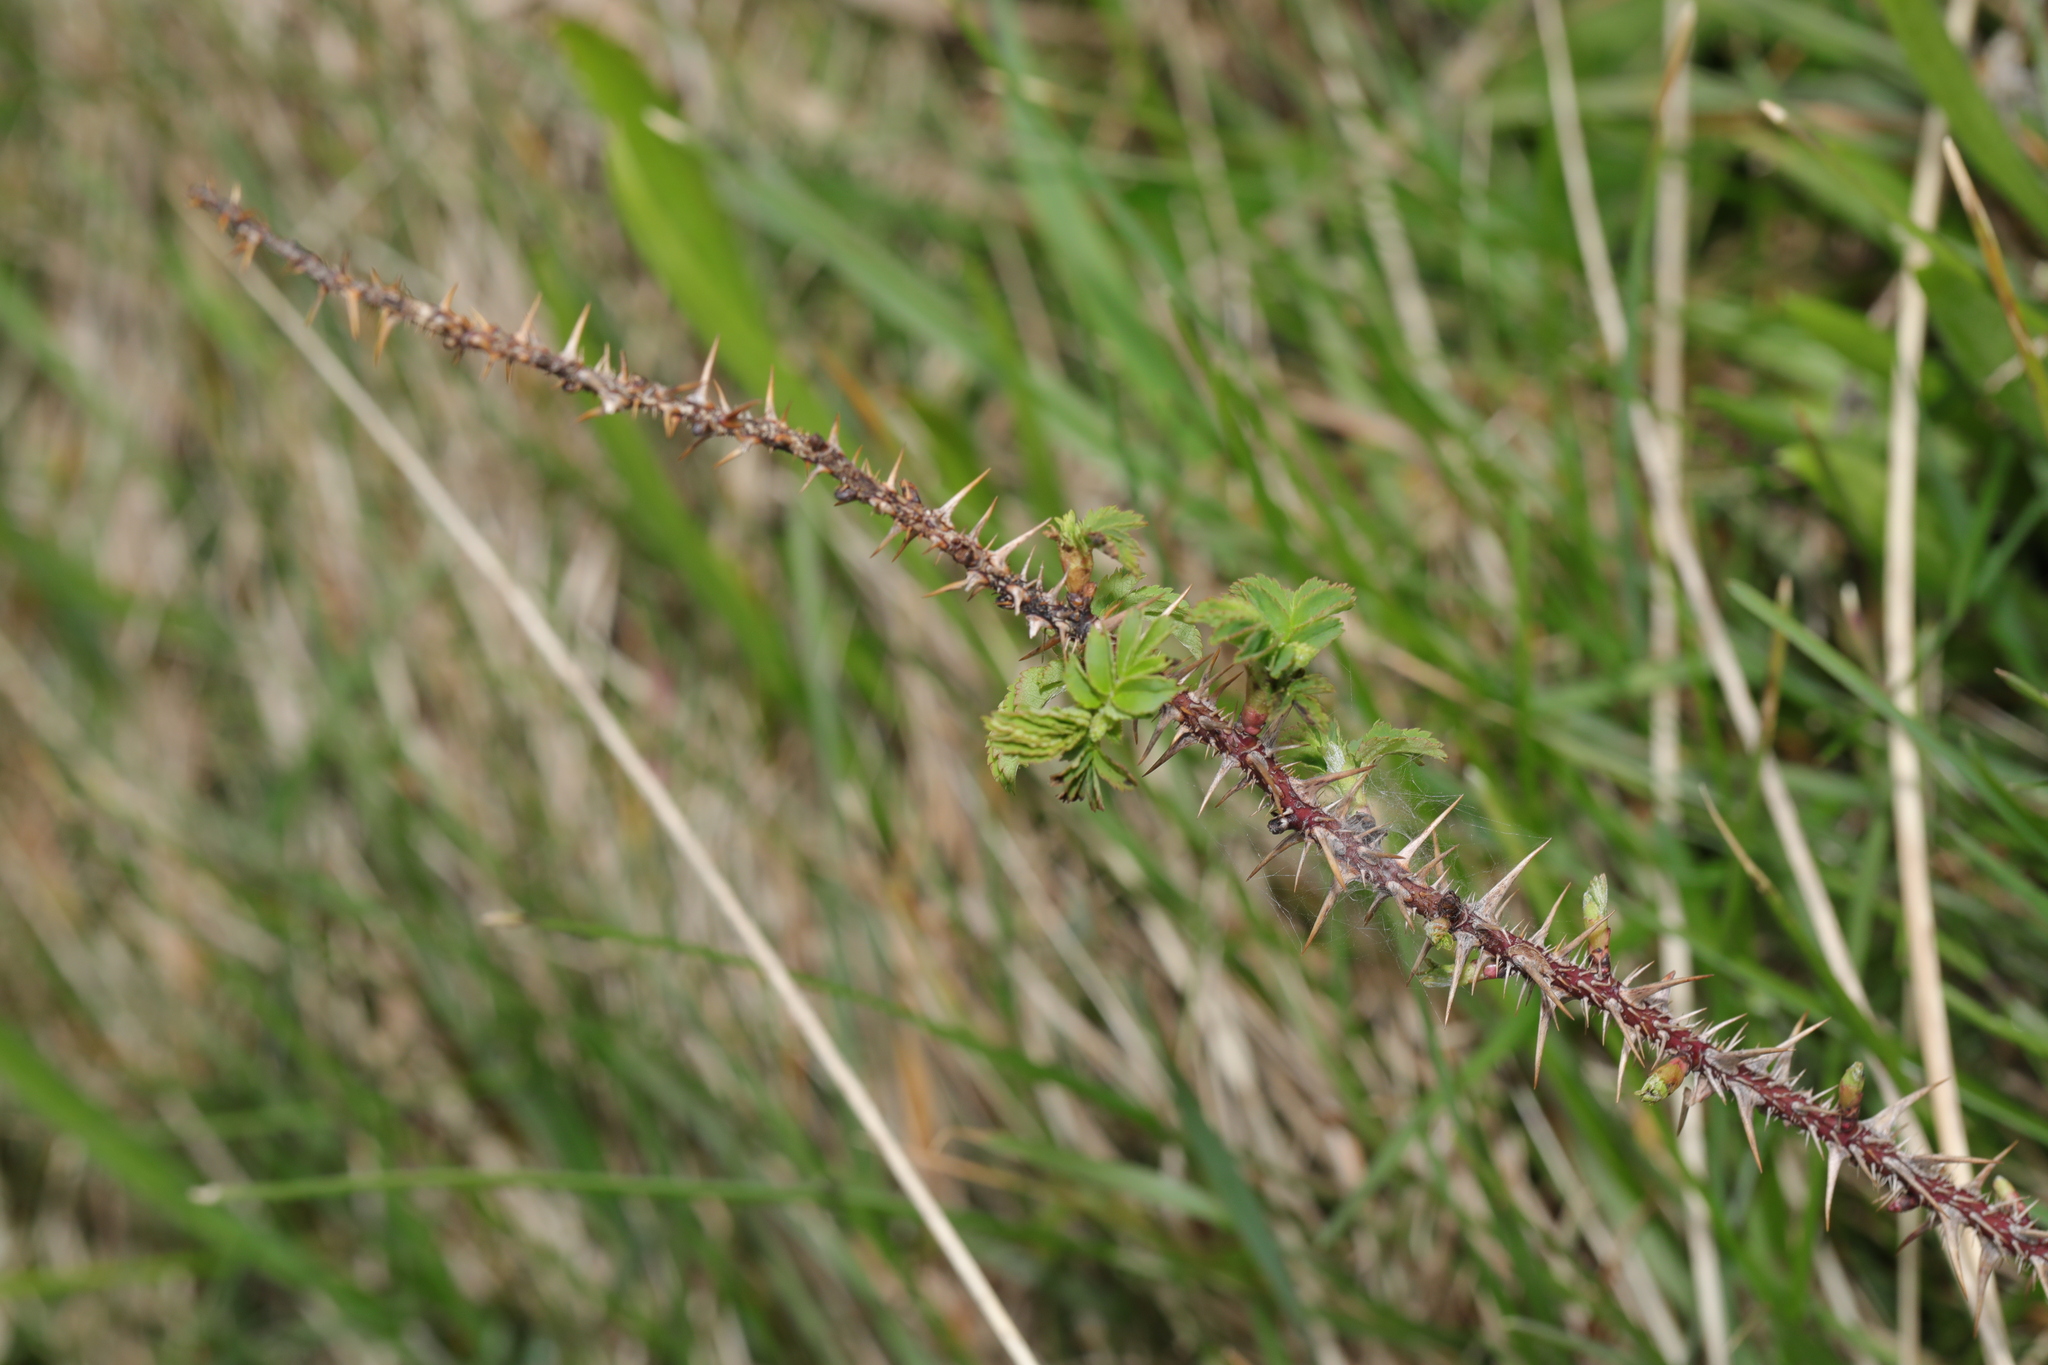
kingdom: Plantae
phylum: Tracheophyta
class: Magnoliopsida
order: Rosales
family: Rosaceae
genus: Rosa
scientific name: Rosa spinosissima
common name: Burnet rose
